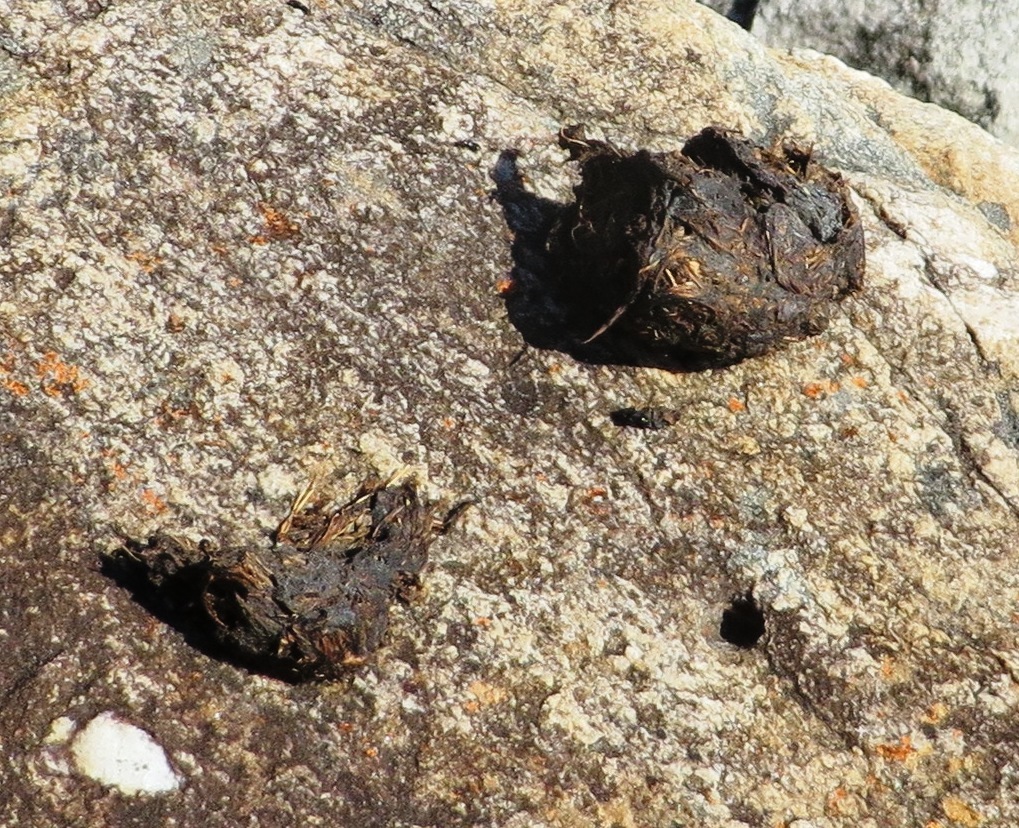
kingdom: Animalia
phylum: Chordata
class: Mammalia
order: Primates
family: Cercopithecidae
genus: Papio
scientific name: Papio ursinus
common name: Chacma baboon
